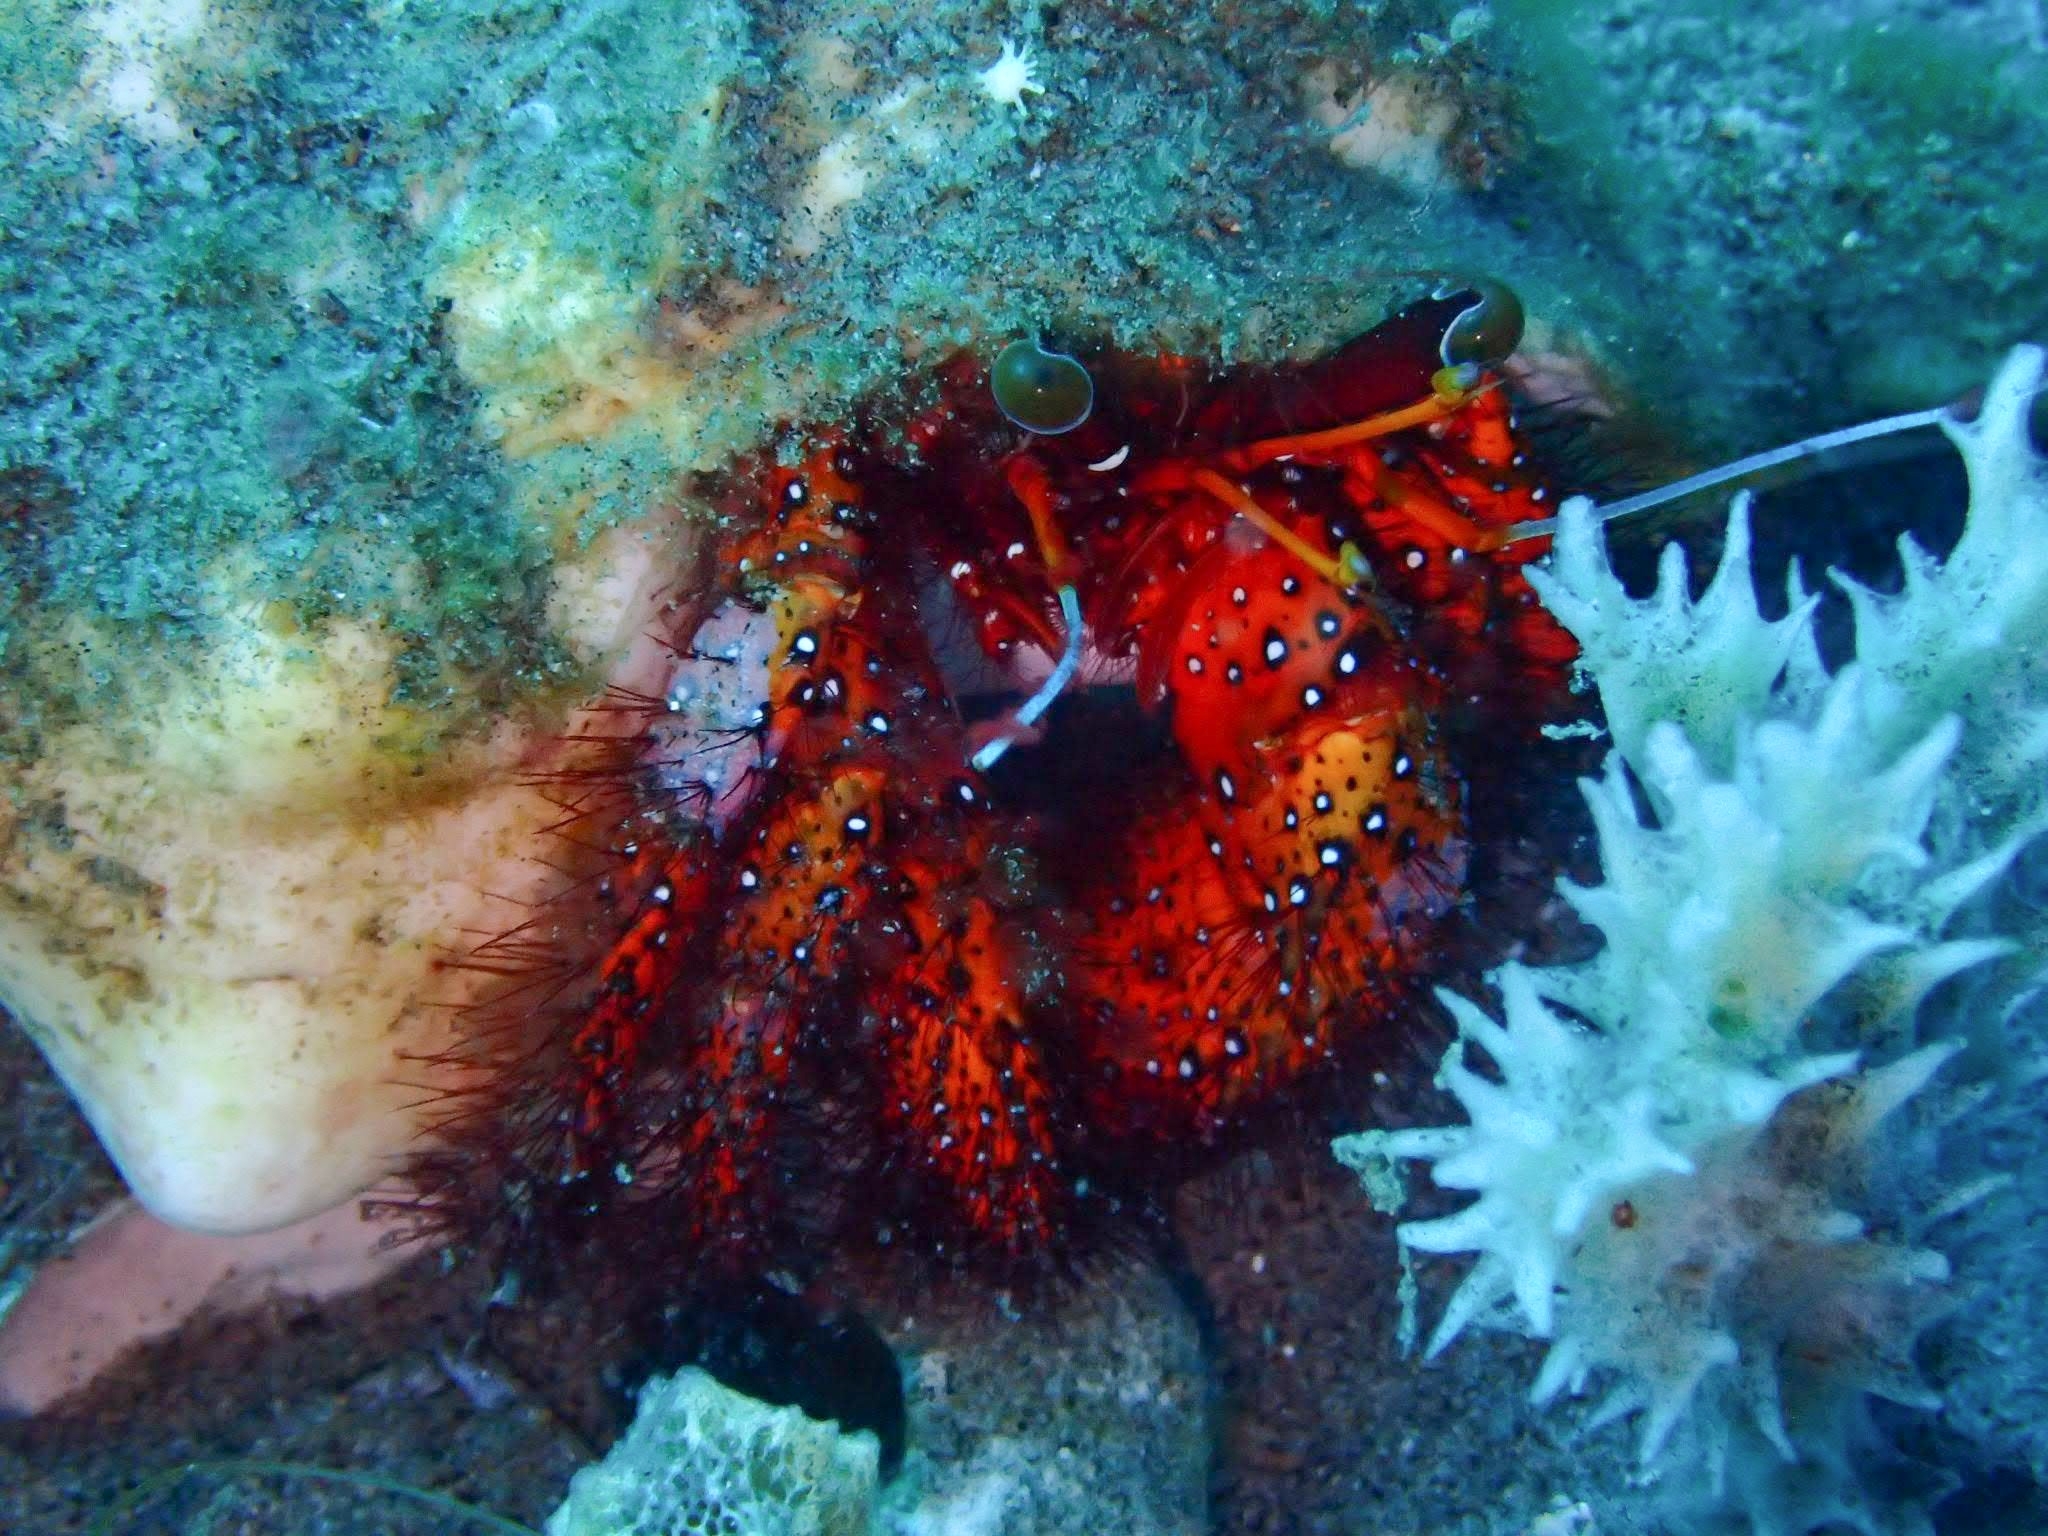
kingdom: Animalia
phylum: Arthropoda
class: Malacostraca
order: Decapoda
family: Diogenidae
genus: Dardanus
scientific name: Dardanus megistos
